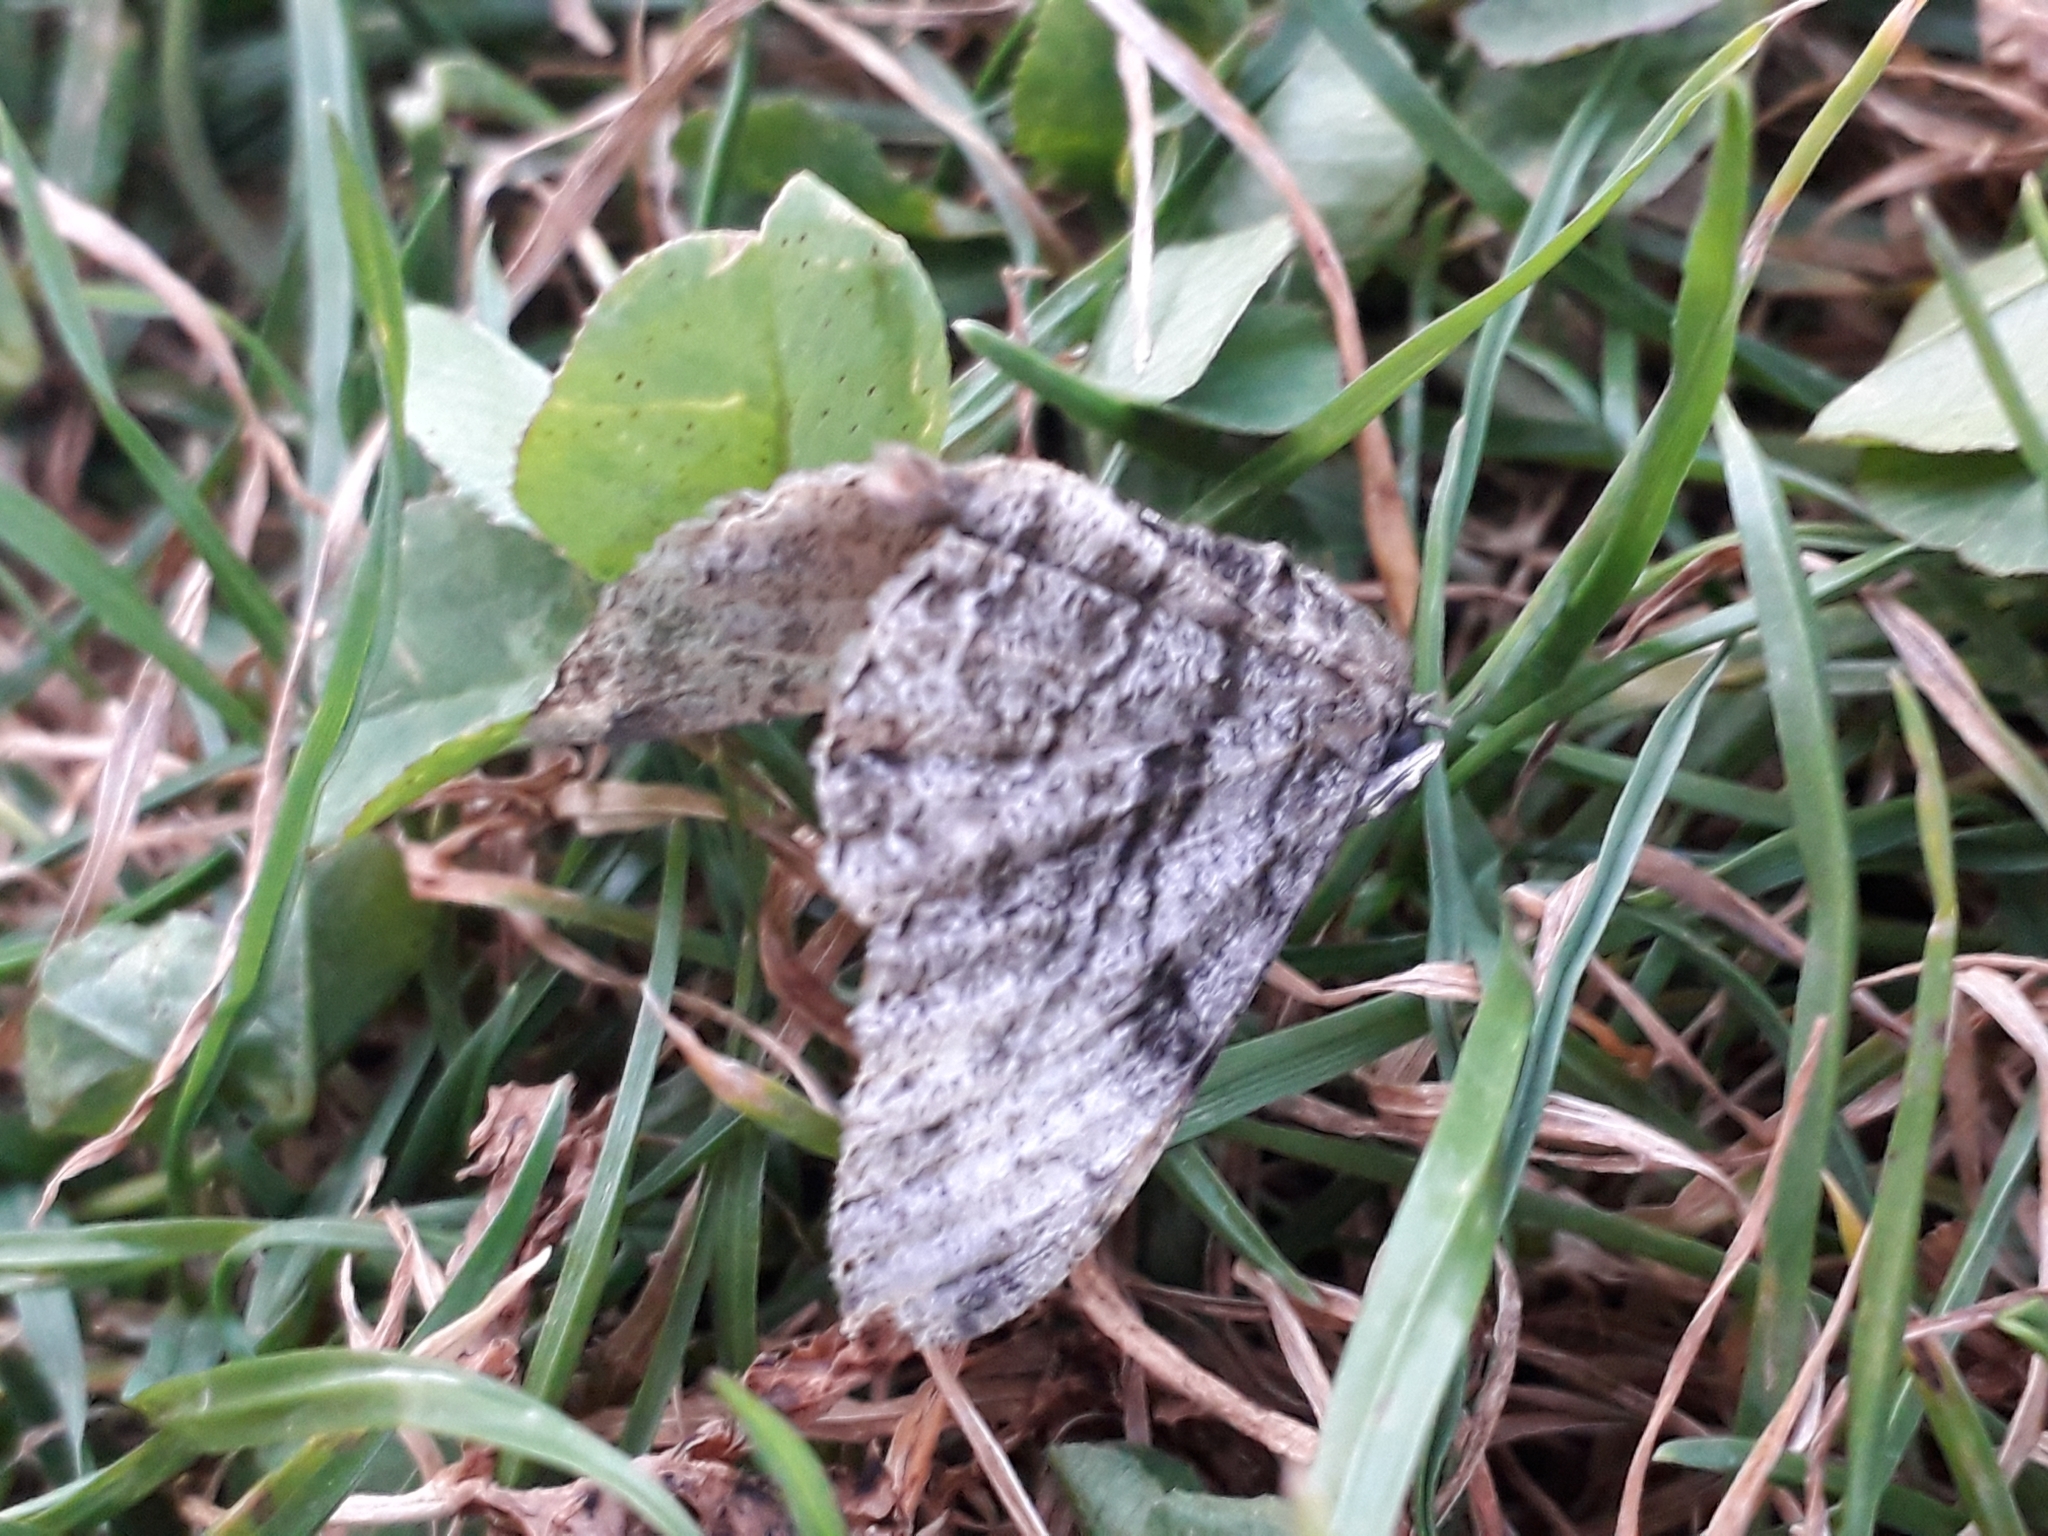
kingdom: Animalia
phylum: Arthropoda
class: Insecta
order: Lepidoptera
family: Geometridae
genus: Peribatodes
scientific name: Peribatodes rhomboidaria
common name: Willow beauty
